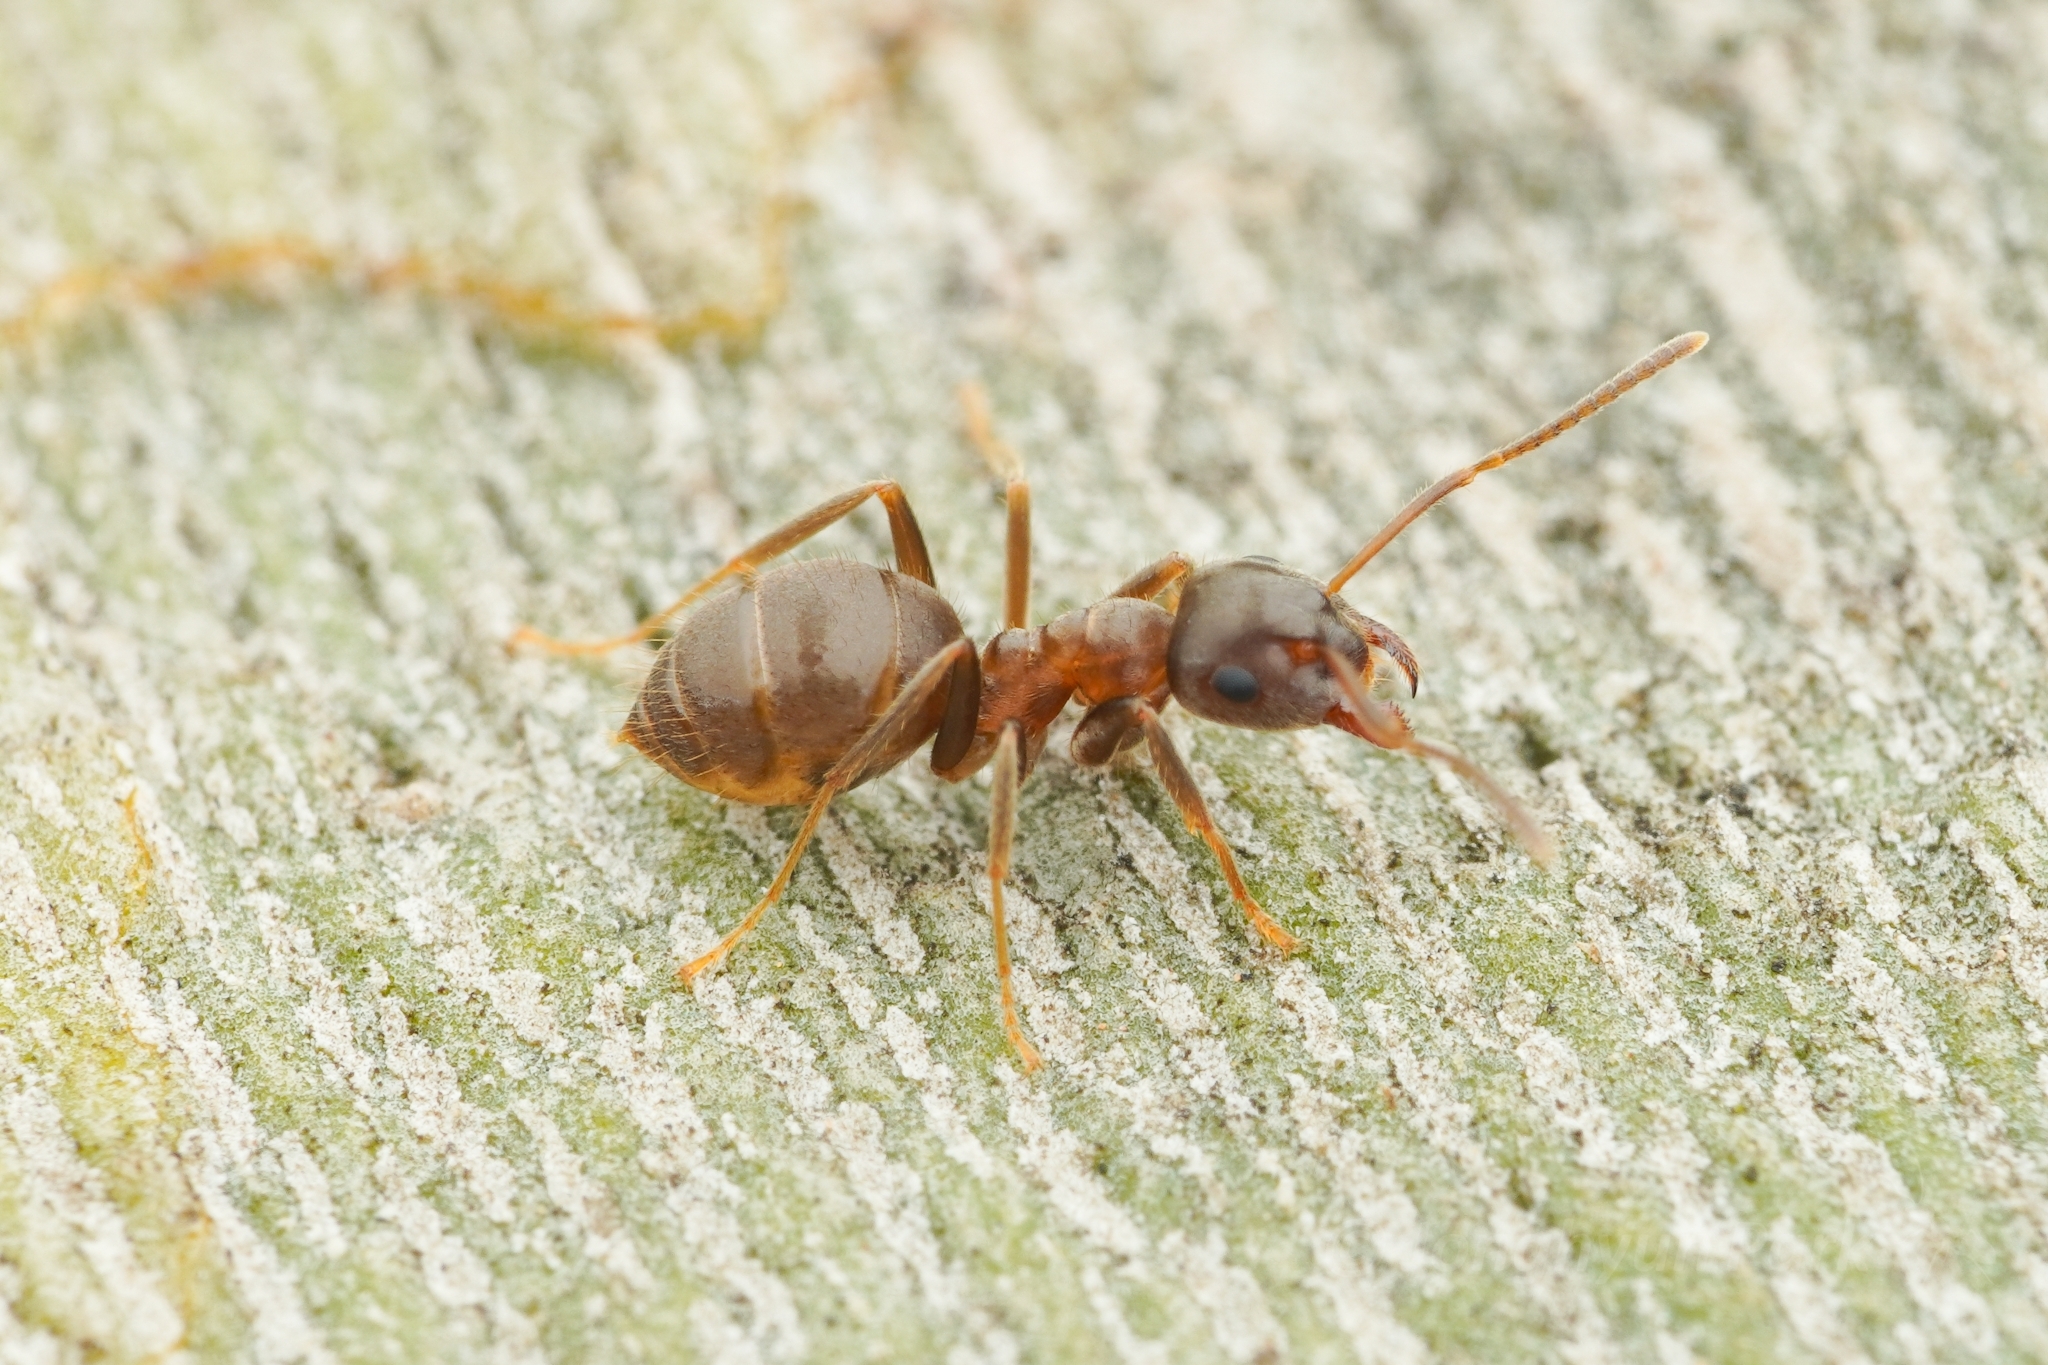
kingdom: Animalia
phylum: Arthropoda
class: Insecta
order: Hymenoptera
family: Formicidae
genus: Lasius
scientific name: Lasius
